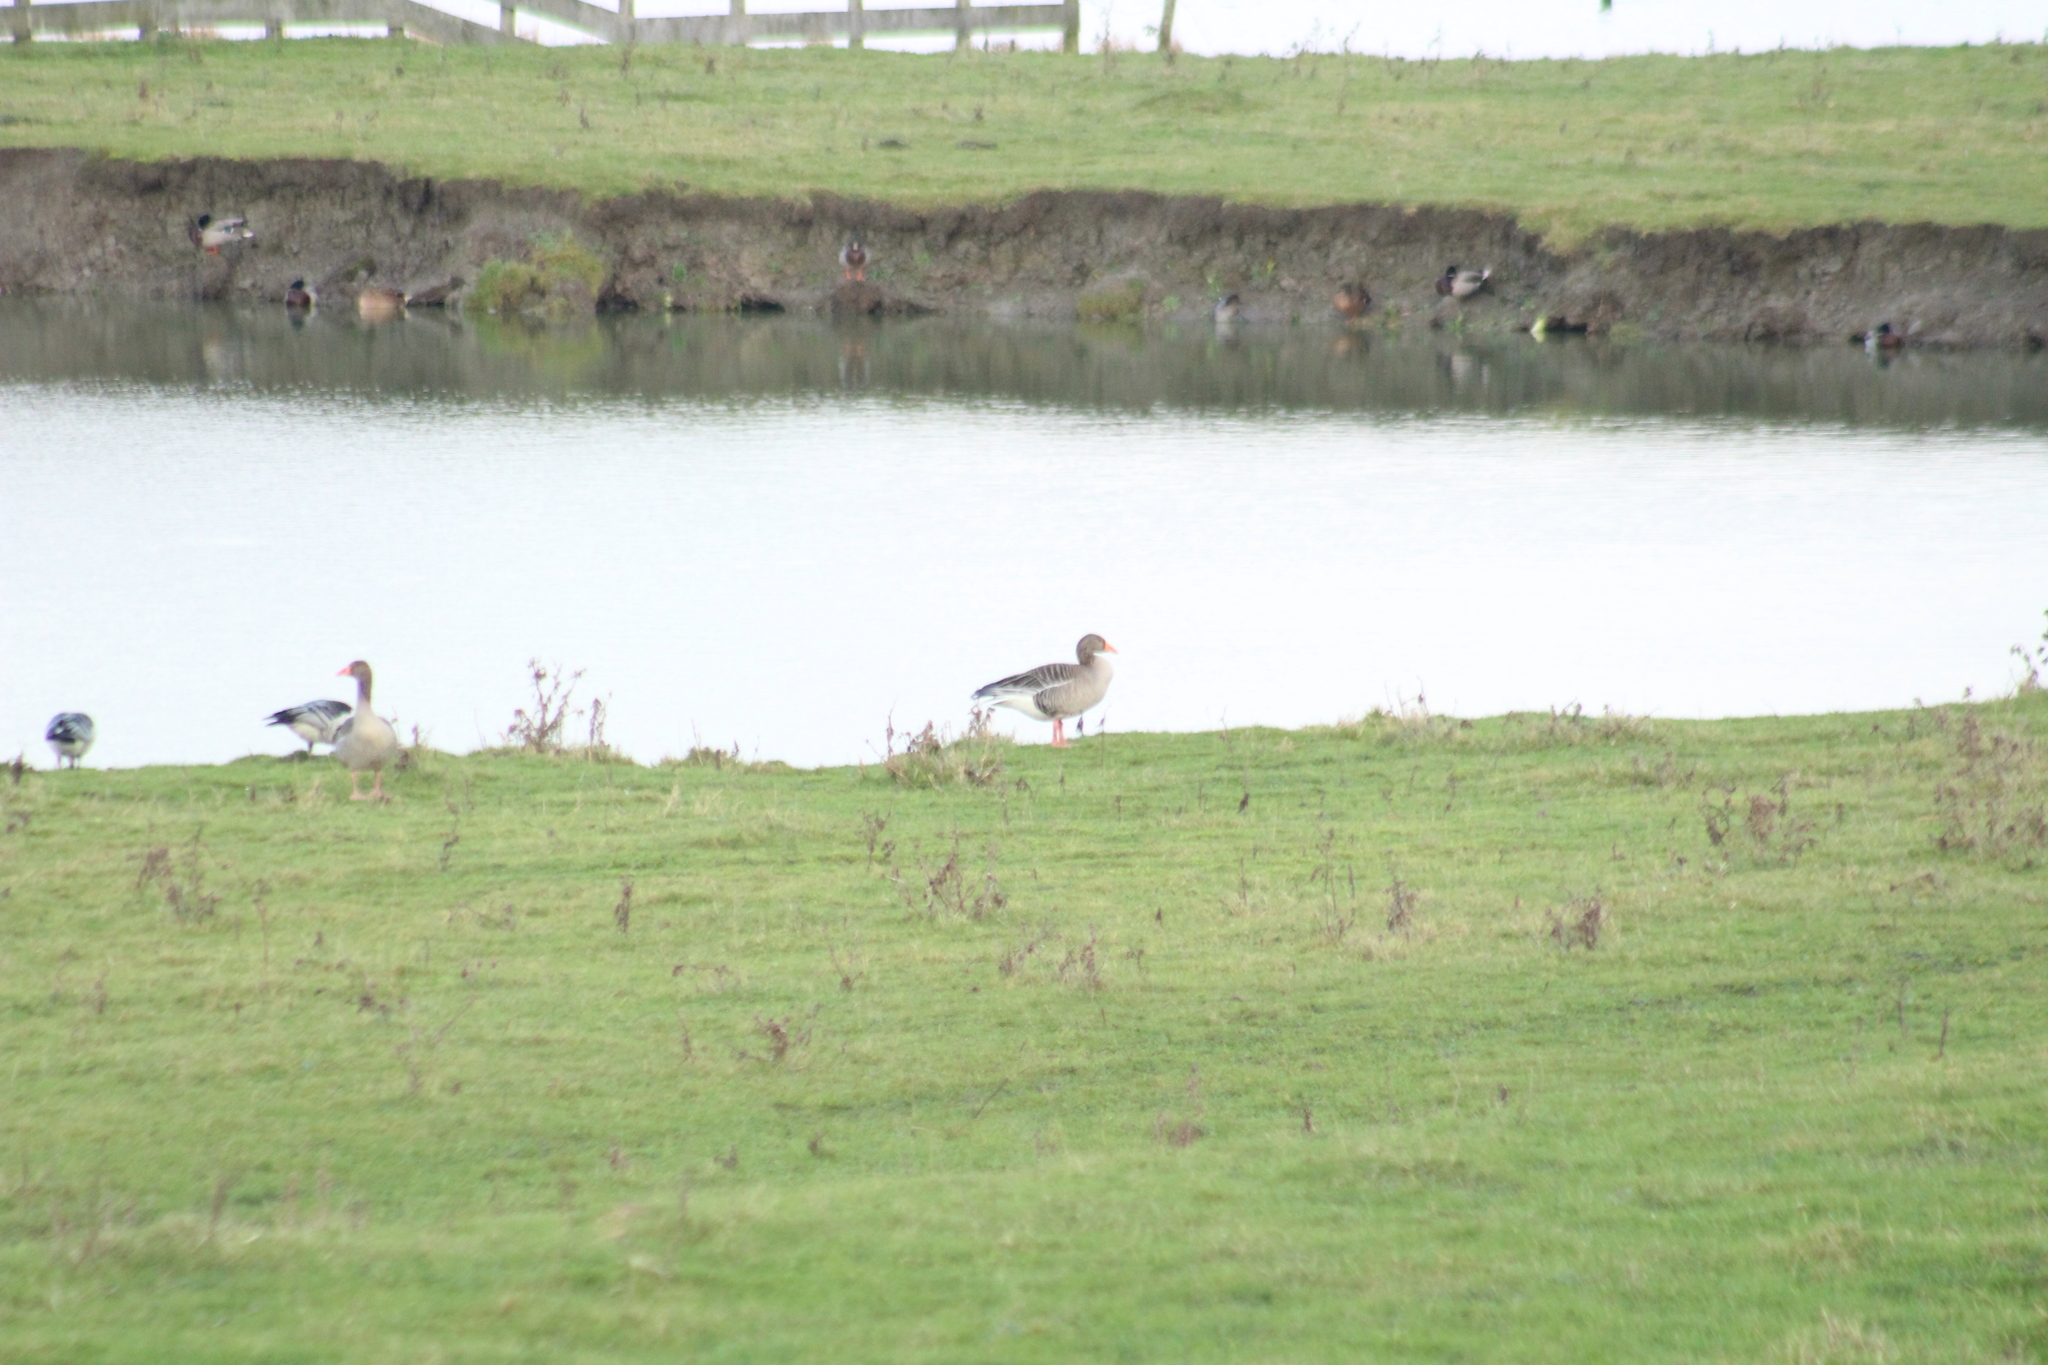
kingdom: Animalia
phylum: Chordata
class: Aves
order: Anseriformes
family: Anatidae
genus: Anser
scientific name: Anser anser
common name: Greylag goose
